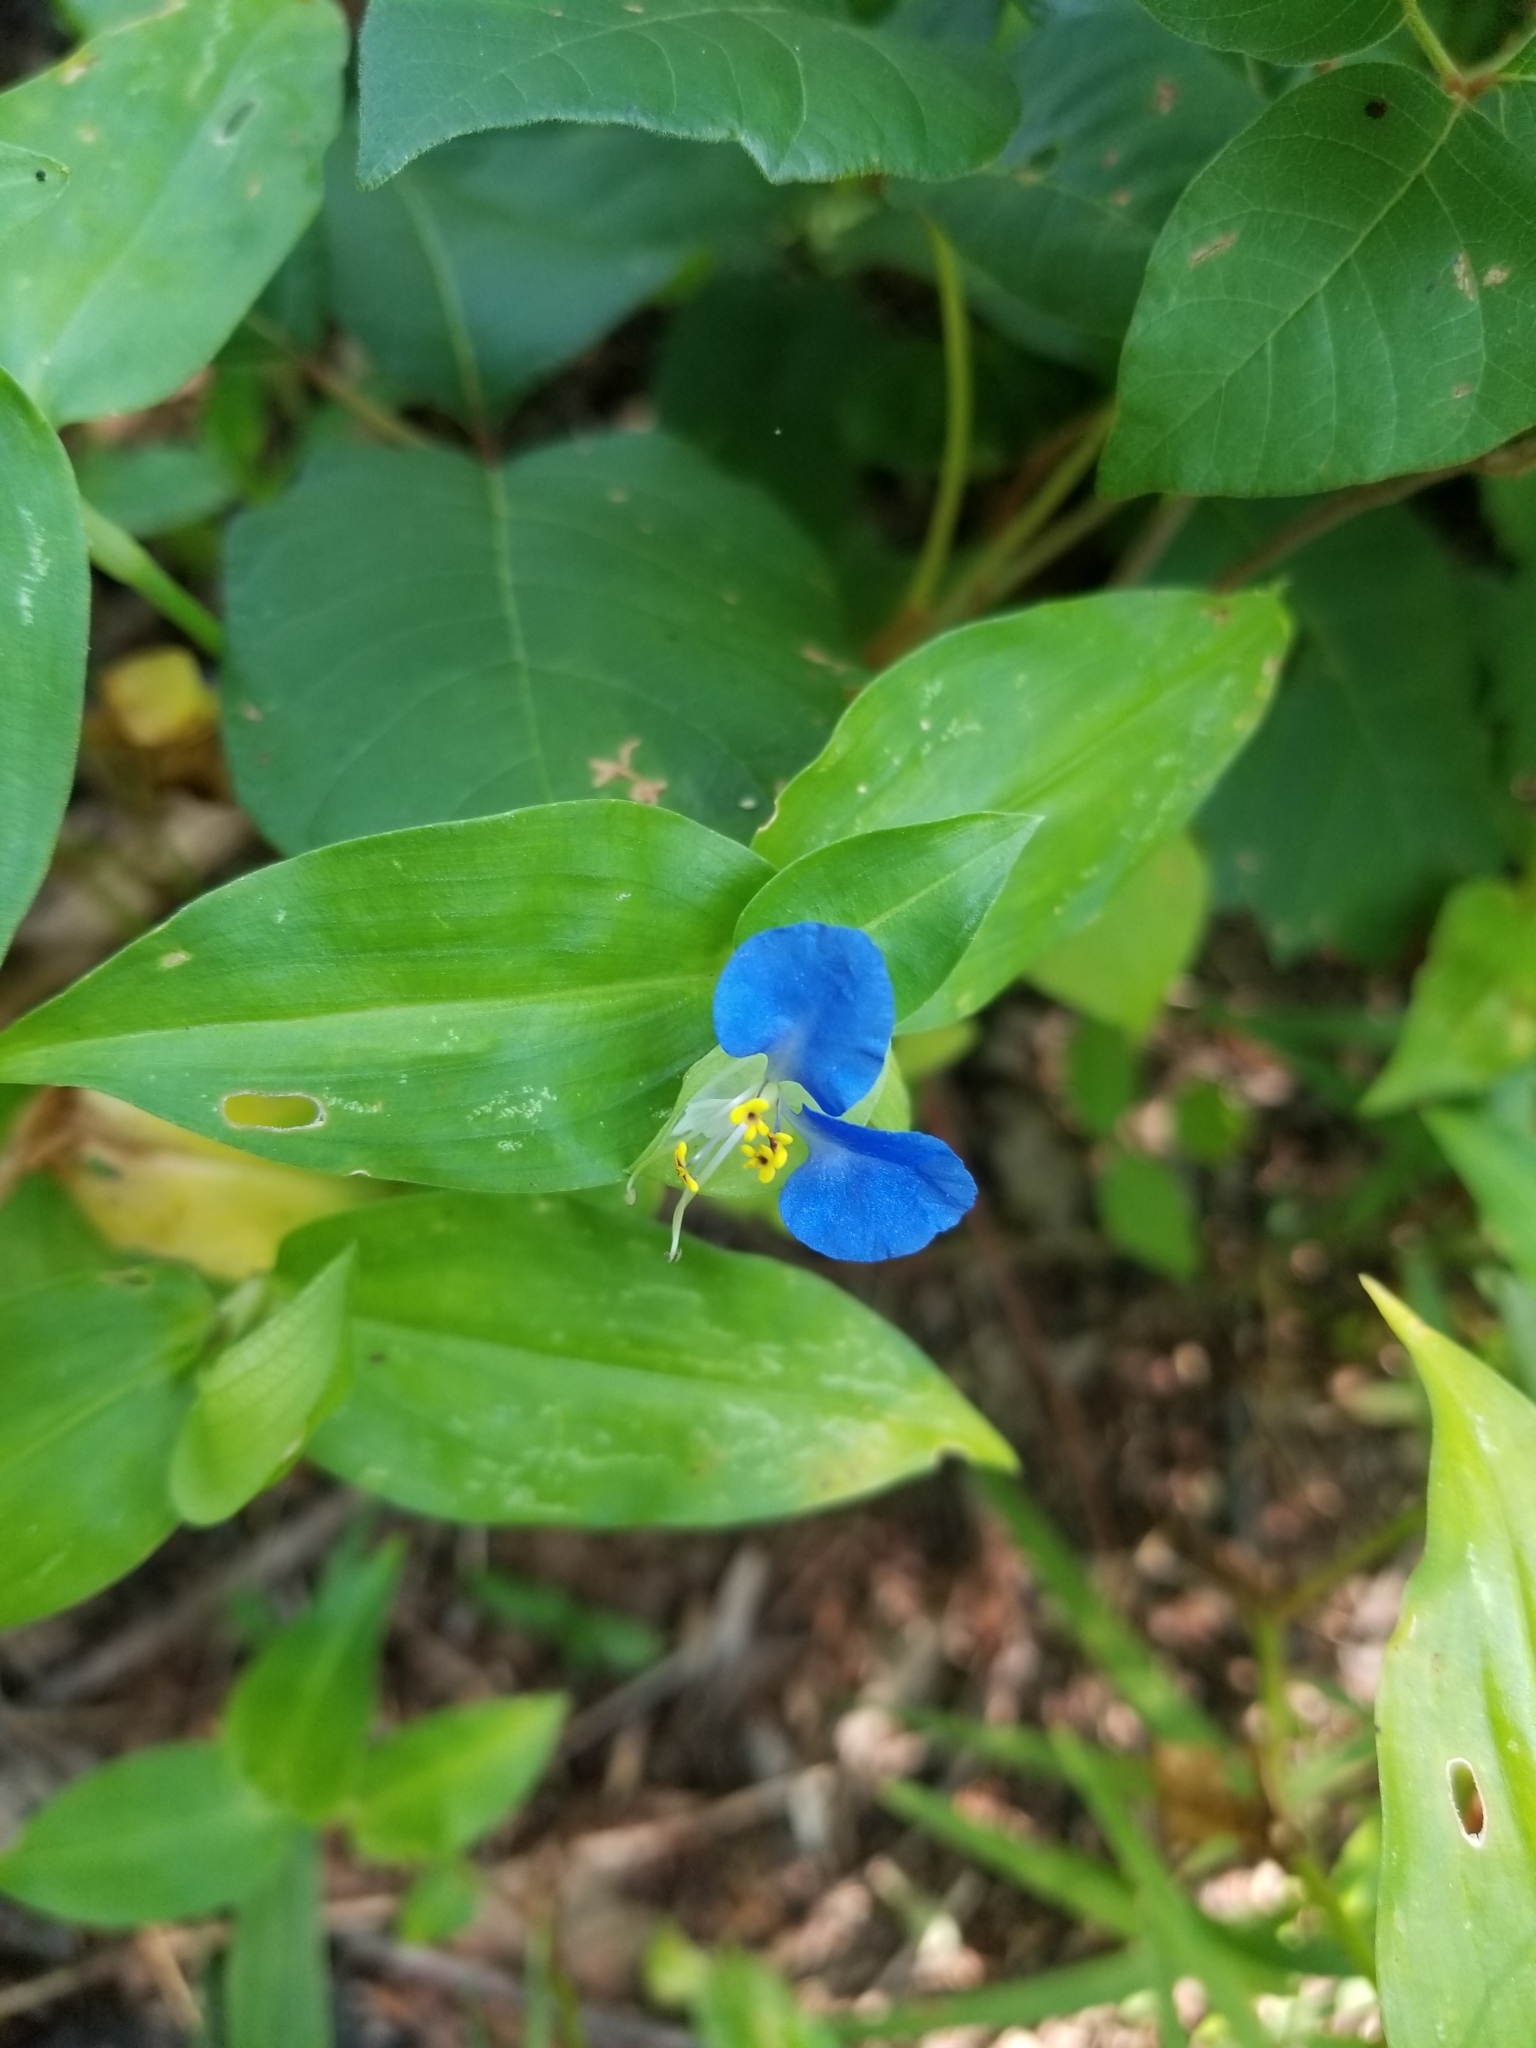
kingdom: Plantae
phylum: Tracheophyta
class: Liliopsida
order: Commelinales
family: Commelinaceae
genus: Commelina
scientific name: Commelina communis
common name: Asiatic dayflower
